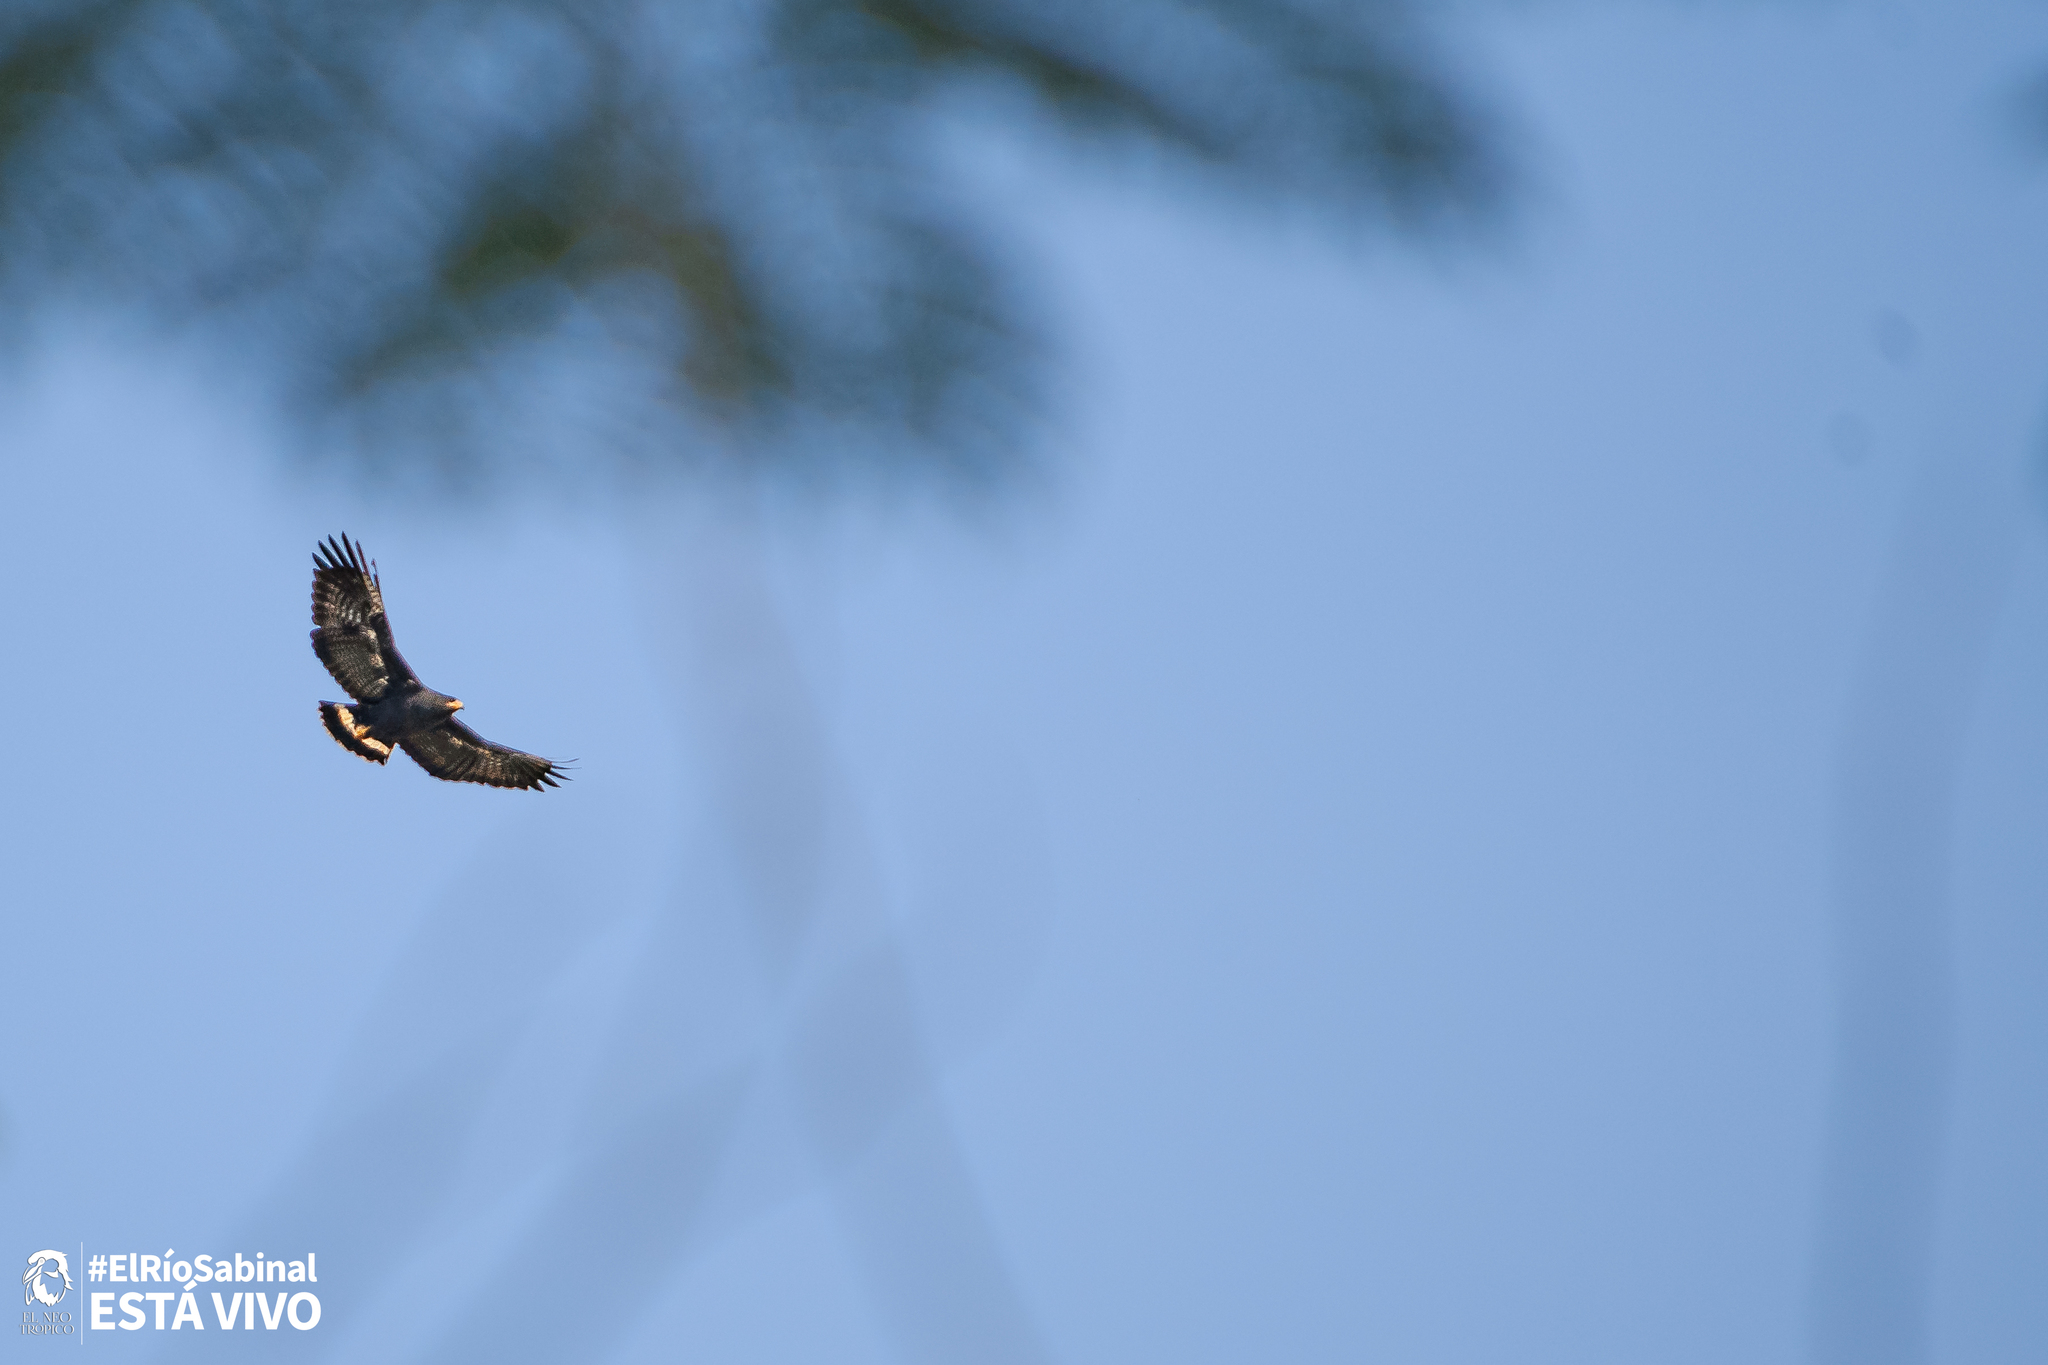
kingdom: Animalia
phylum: Chordata
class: Aves
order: Accipitriformes
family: Accipitridae
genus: Buteogallus
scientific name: Buteogallus anthracinus
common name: Common black hawk
